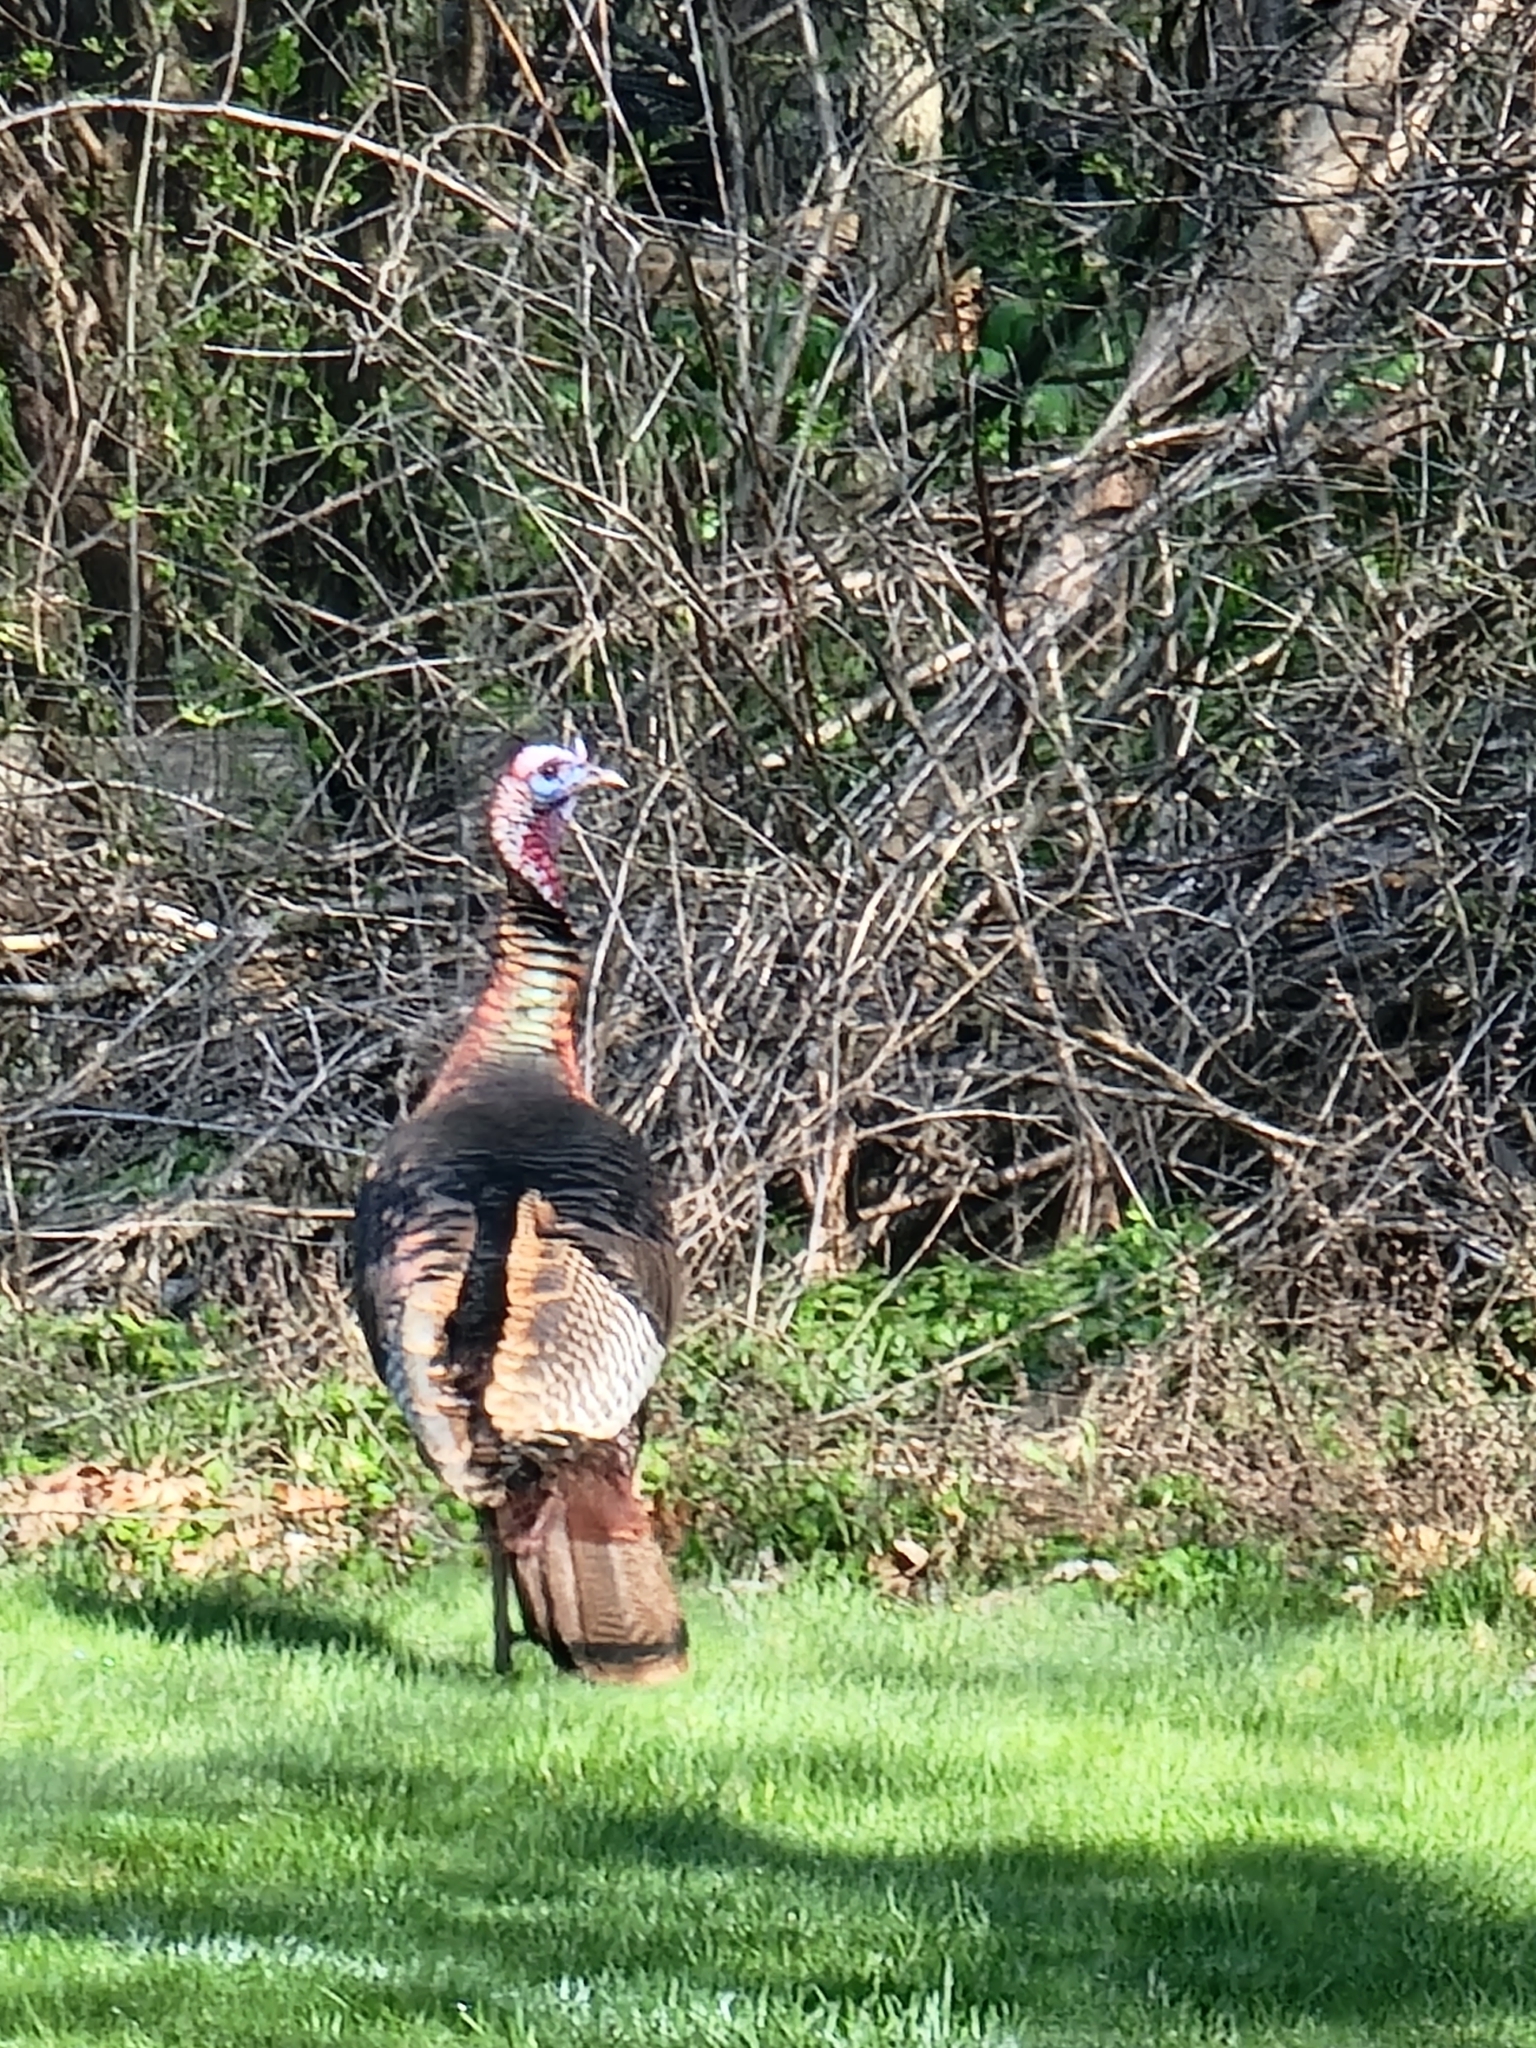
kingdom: Animalia
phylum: Chordata
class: Aves
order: Galliformes
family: Phasianidae
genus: Meleagris
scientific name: Meleagris gallopavo
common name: Wild turkey
